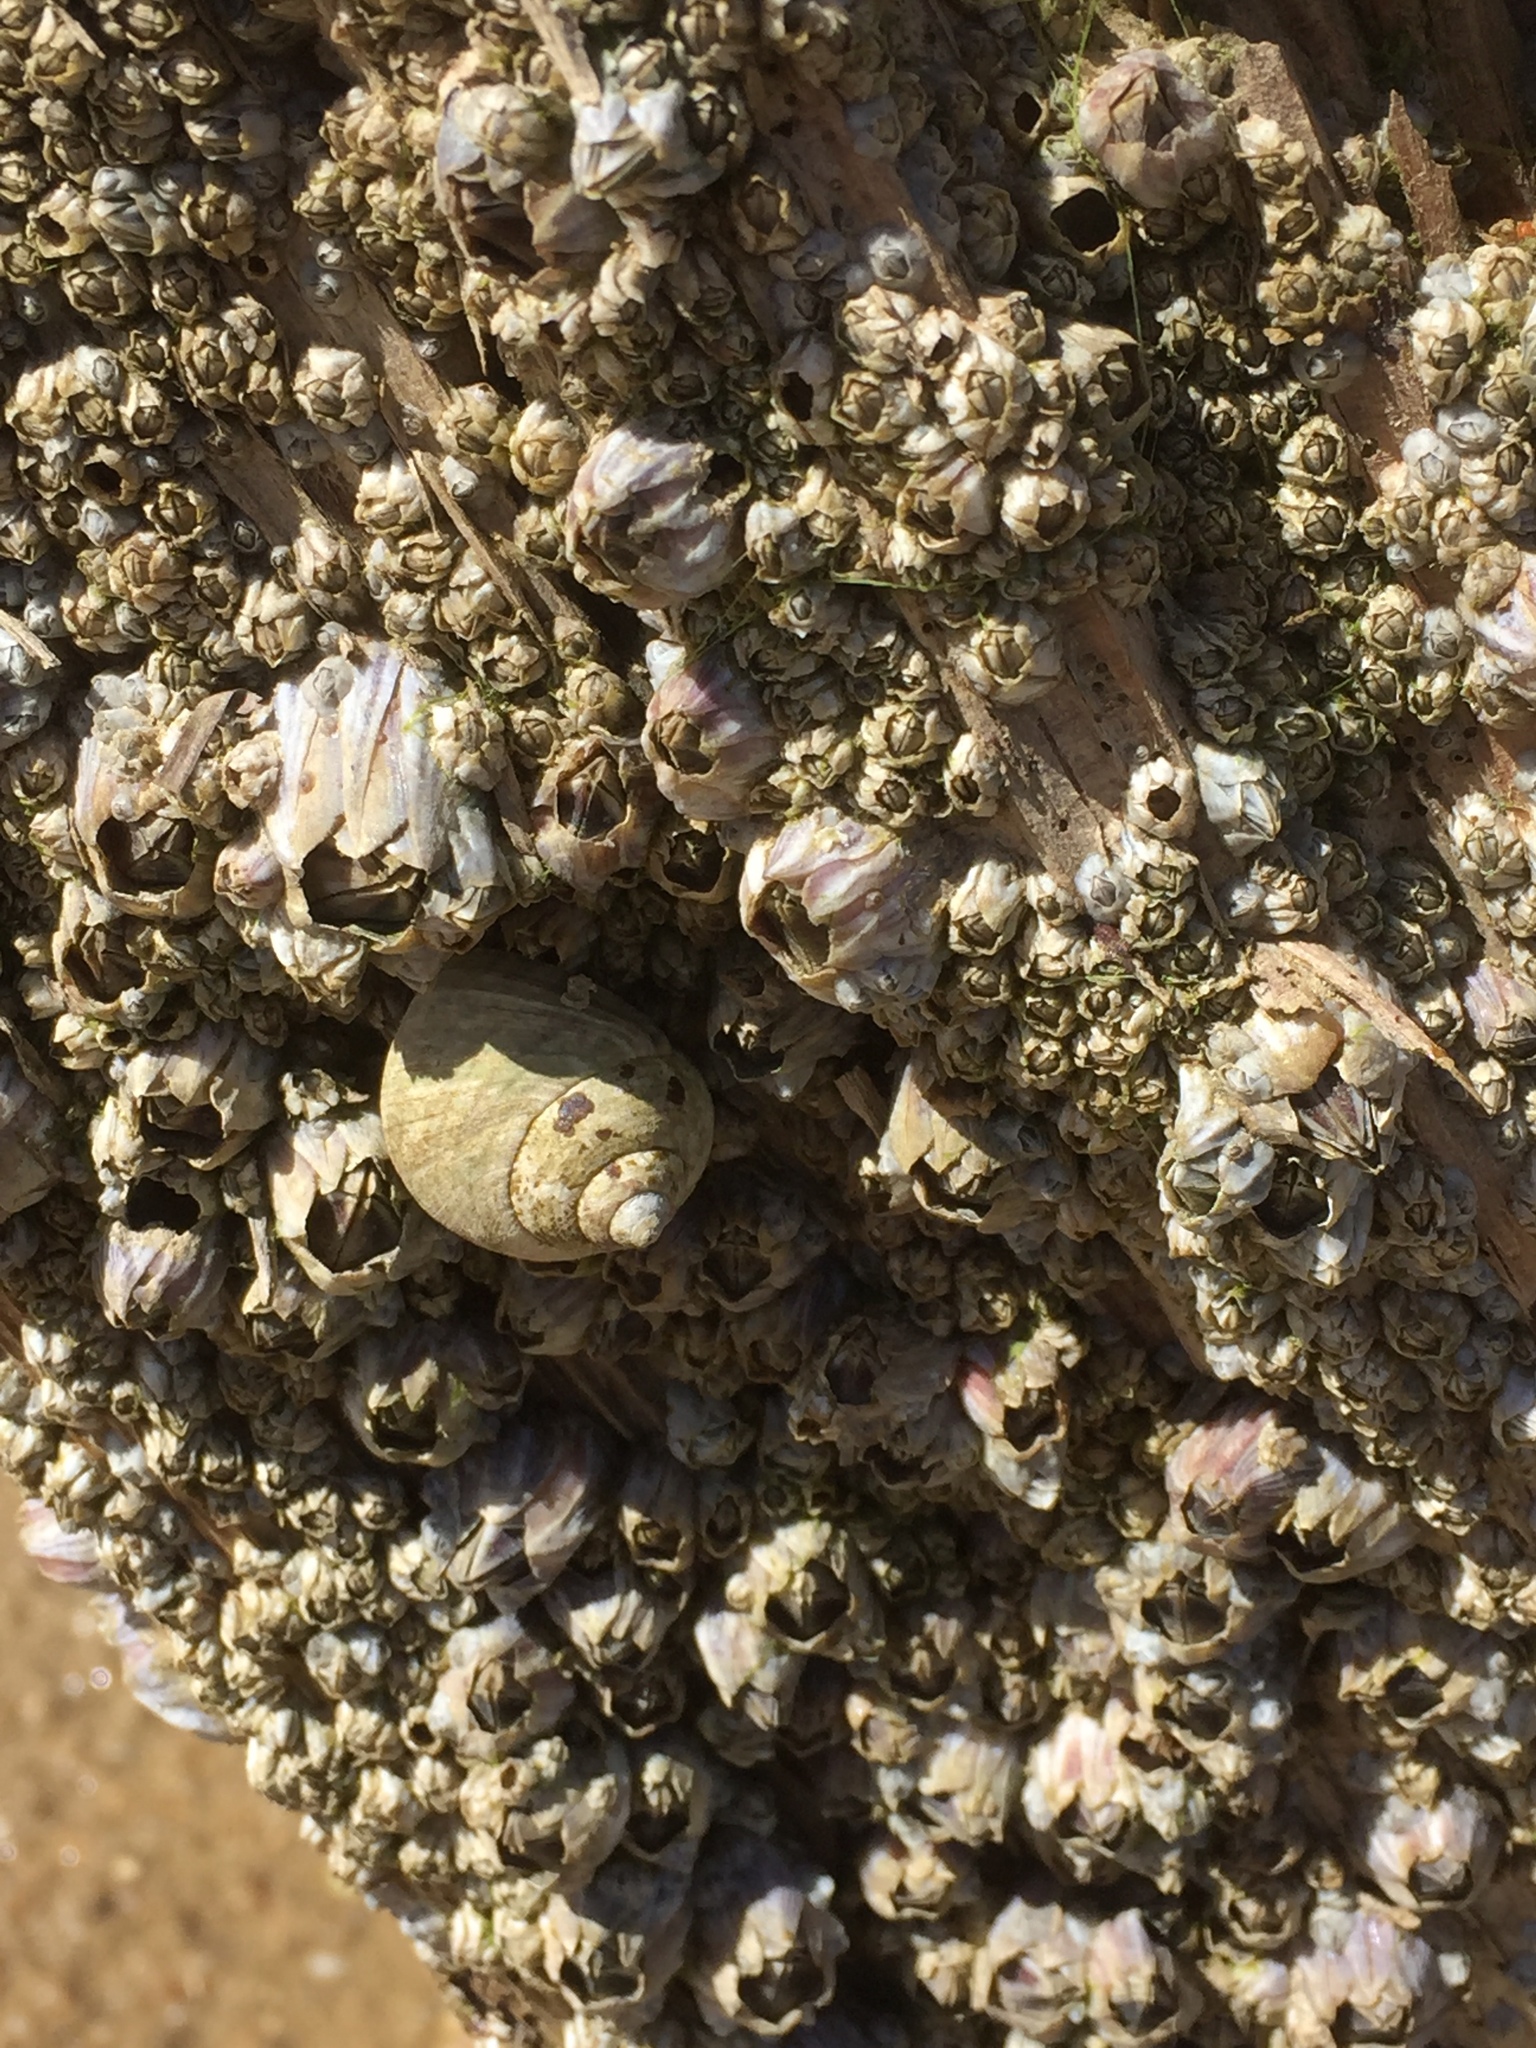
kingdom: Animalia
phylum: Arthropoda
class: Maxillopoda
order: Sessilia
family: Chthamalidae
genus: Chthamalus
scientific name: Chthamalus montagui
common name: Montagu's stellate barnacle
